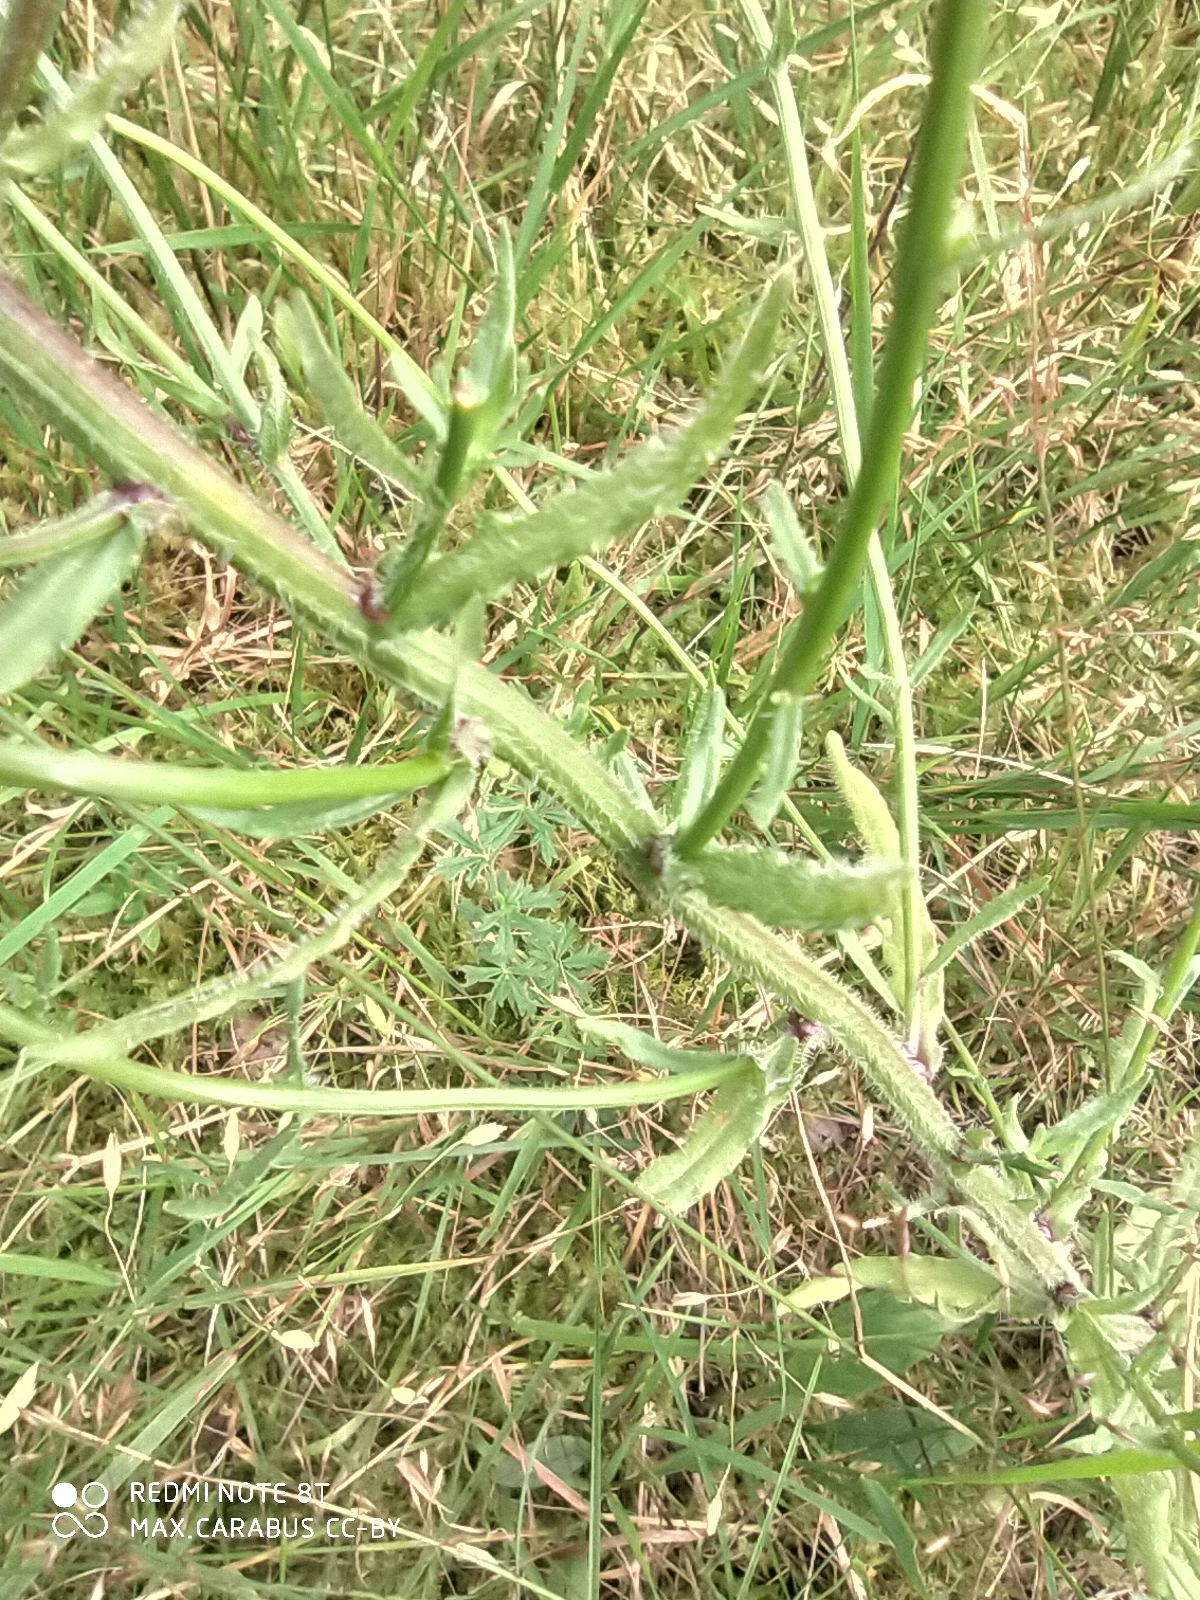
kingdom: Plantae
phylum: Tracheophyta
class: Magnoliopsida
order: Asterales
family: Campanulaceae
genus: Jasione
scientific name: Jasione montana
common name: Sheep's-bit
